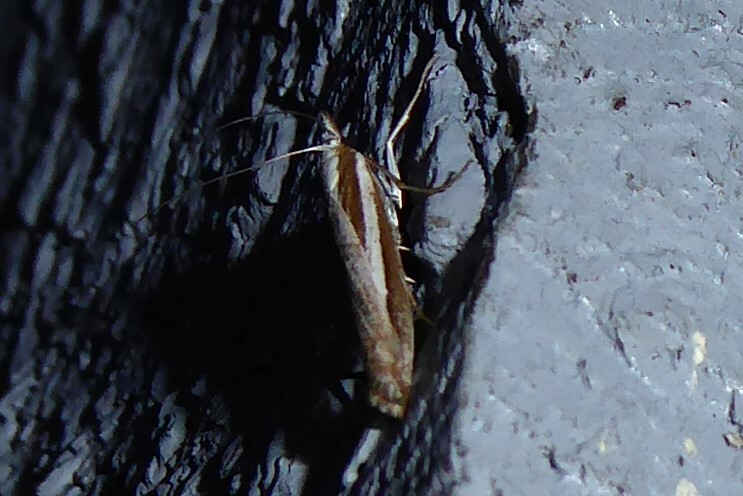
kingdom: Animalia
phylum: Arthropoda
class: Insecta
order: Lepidoptera
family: Crambidae
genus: Orocrambus
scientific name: Orocrambus vittellus
